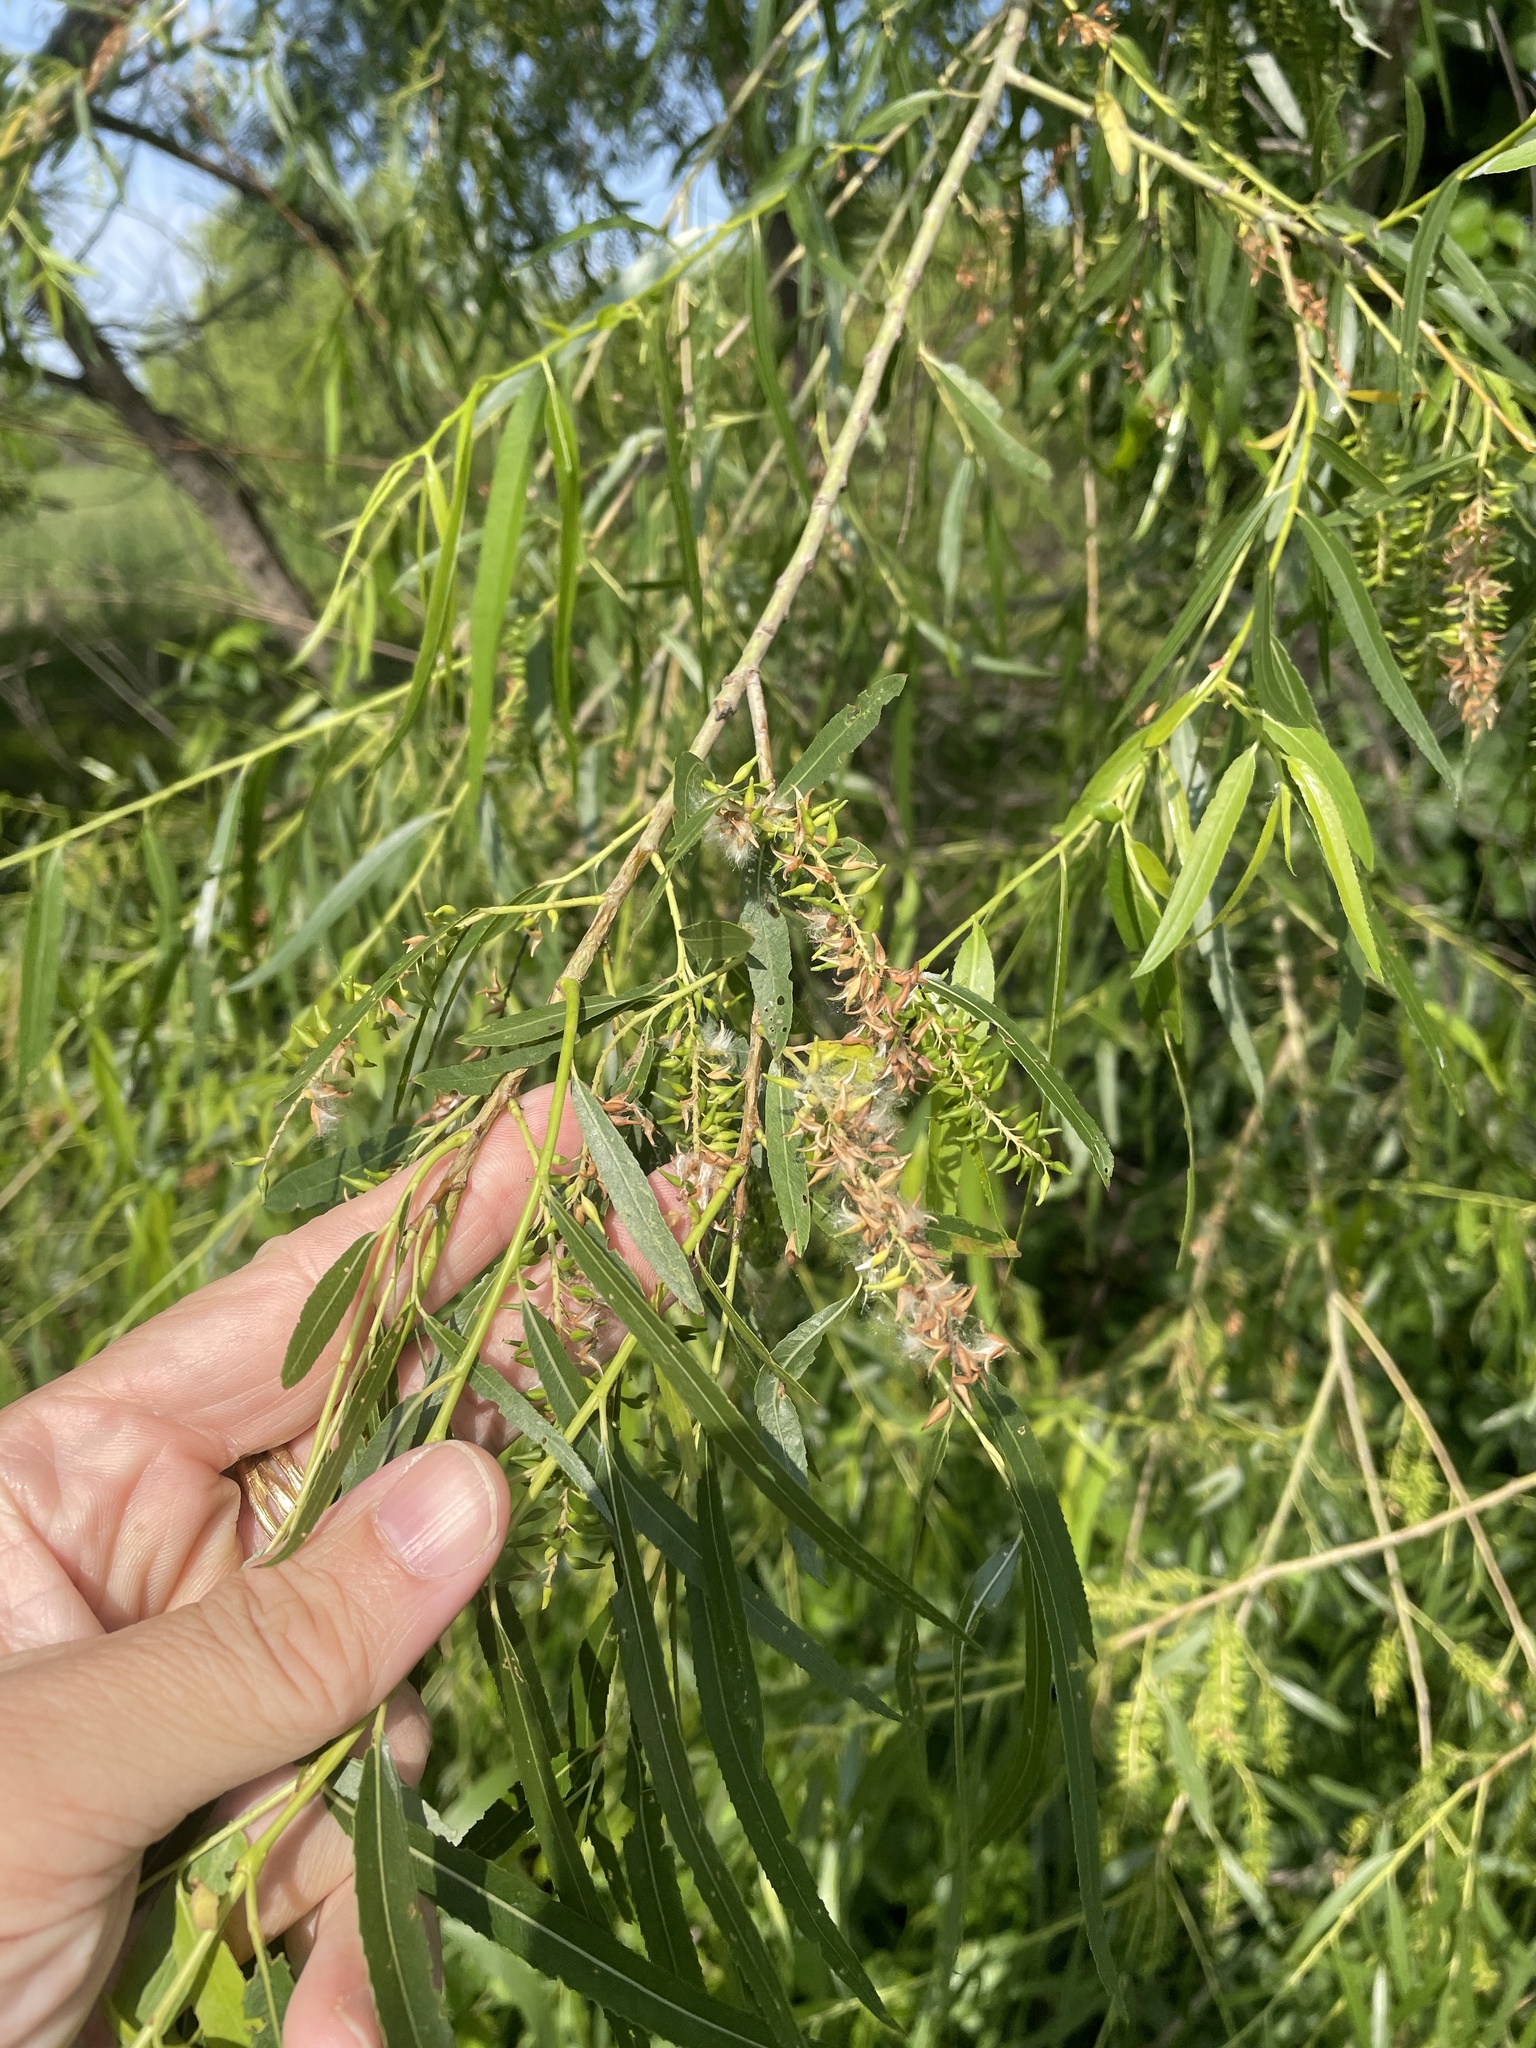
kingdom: Plantae
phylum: Tracheophyta
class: Magnoliopsida
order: Malpighiales
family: Salicaceae
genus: Salix
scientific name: Salix nigra
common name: Black willow
